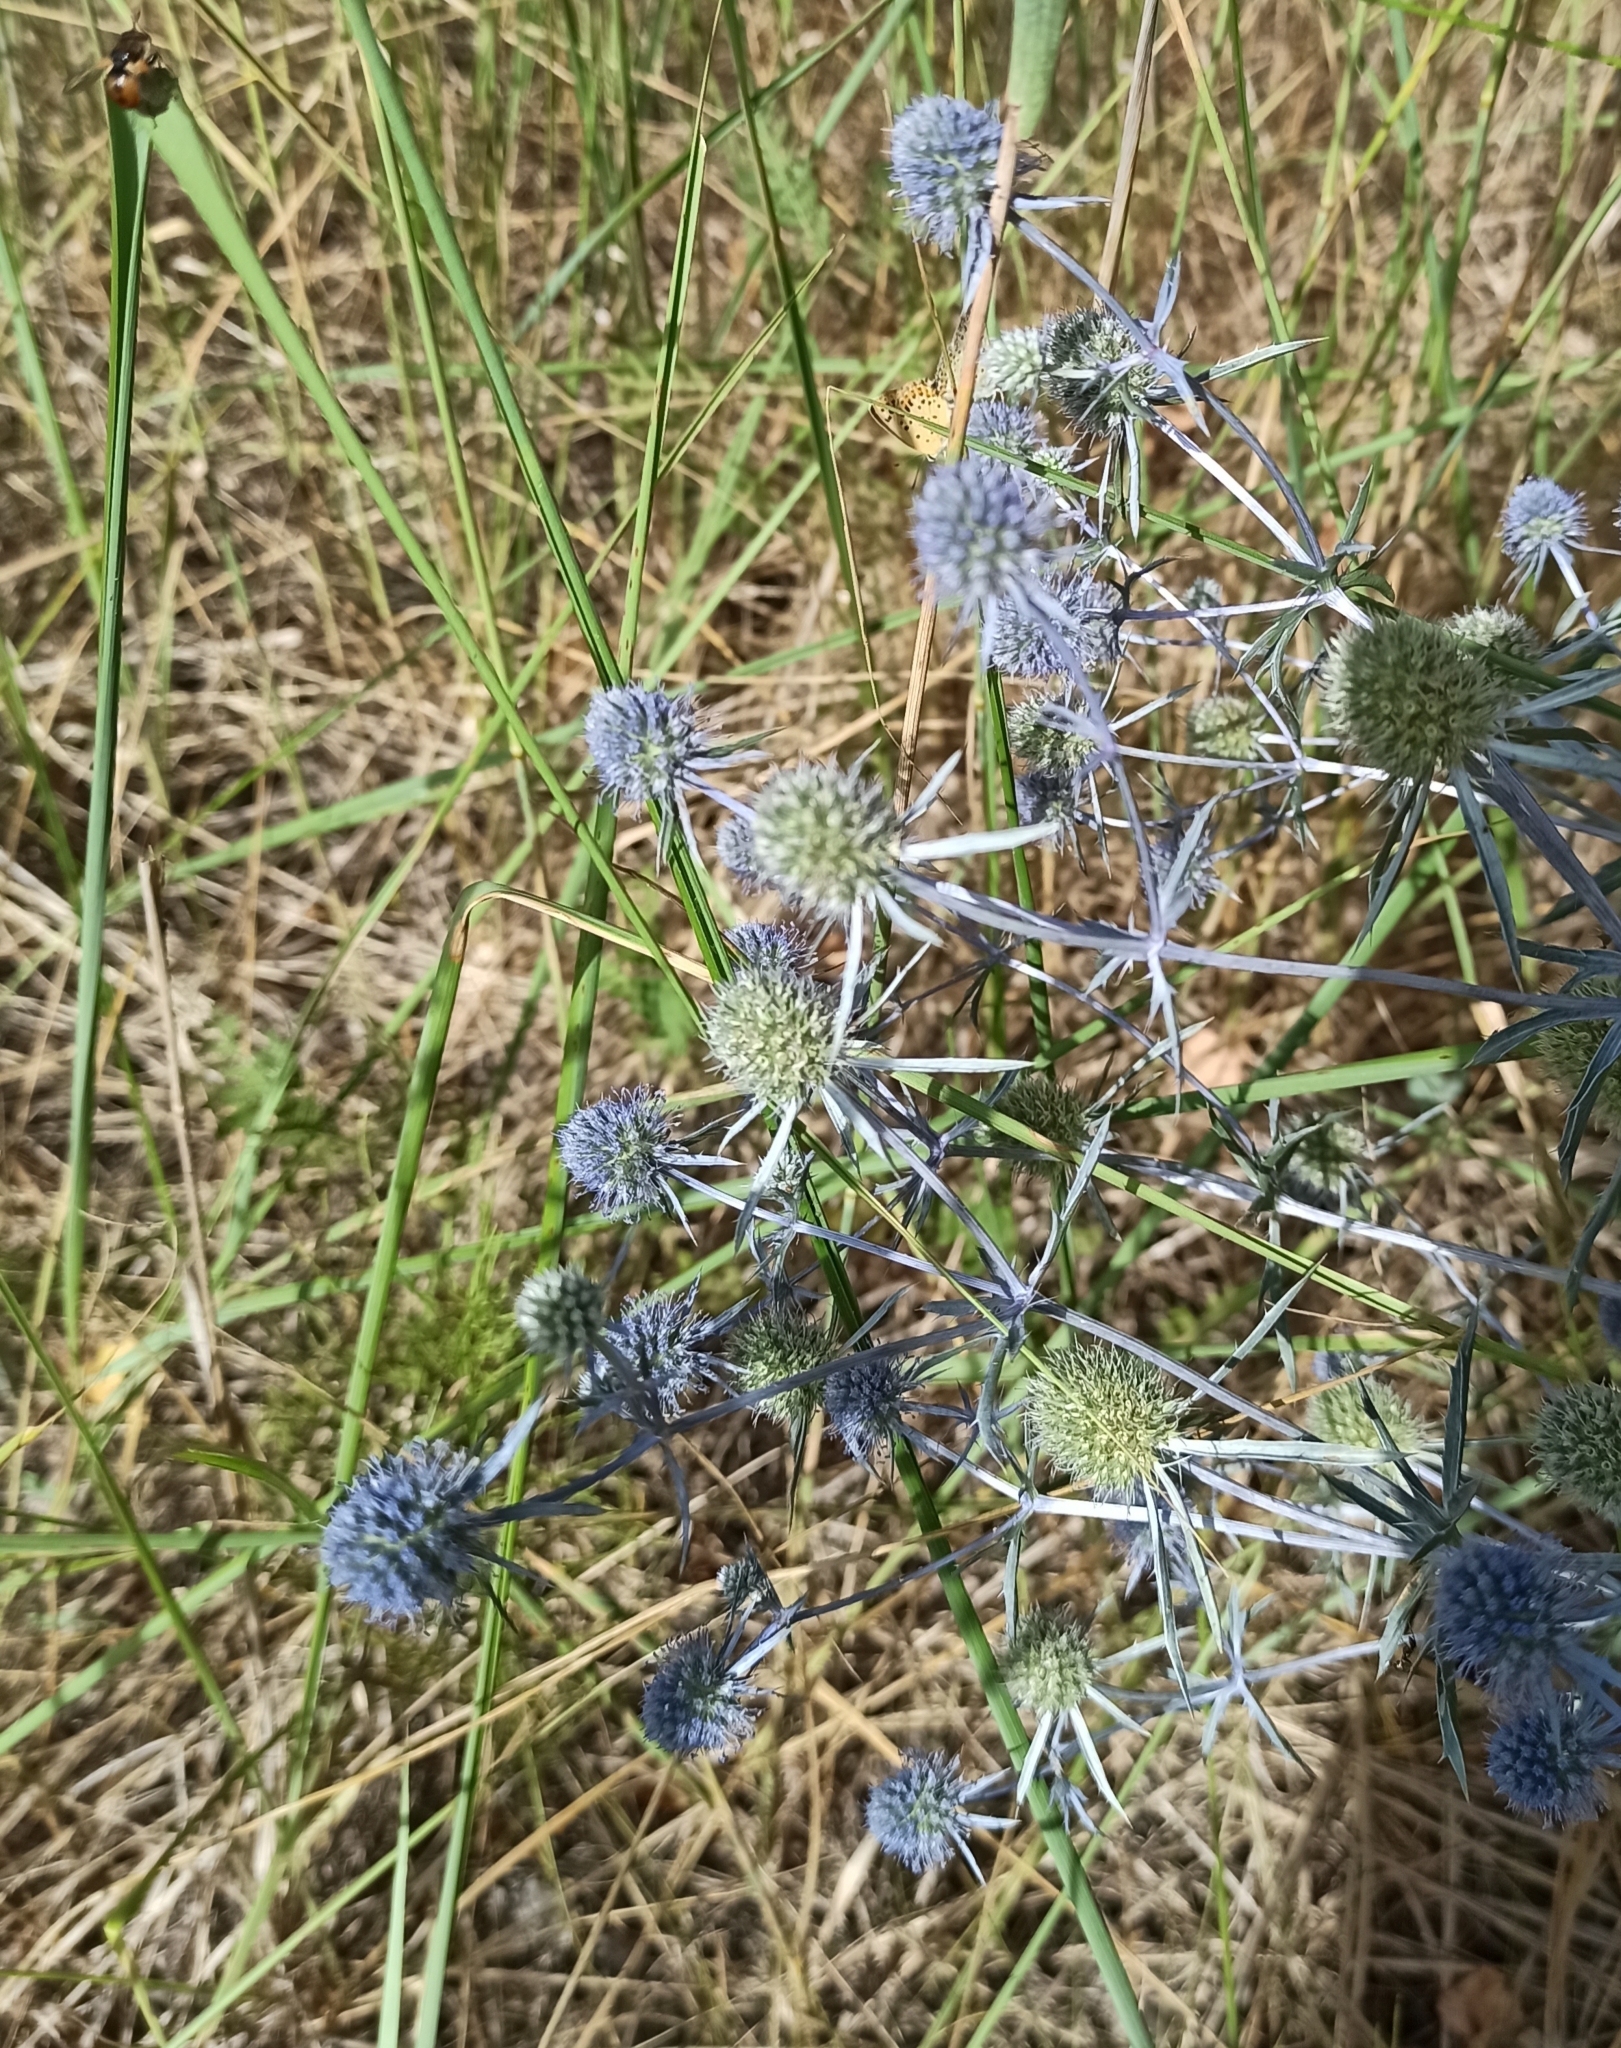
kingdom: Plantae
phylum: Tracheophyta
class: Magnoliopsida
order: Apiales
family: Apiaceae
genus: Eryngium
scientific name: Eryngium planum
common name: Blue eryngo
